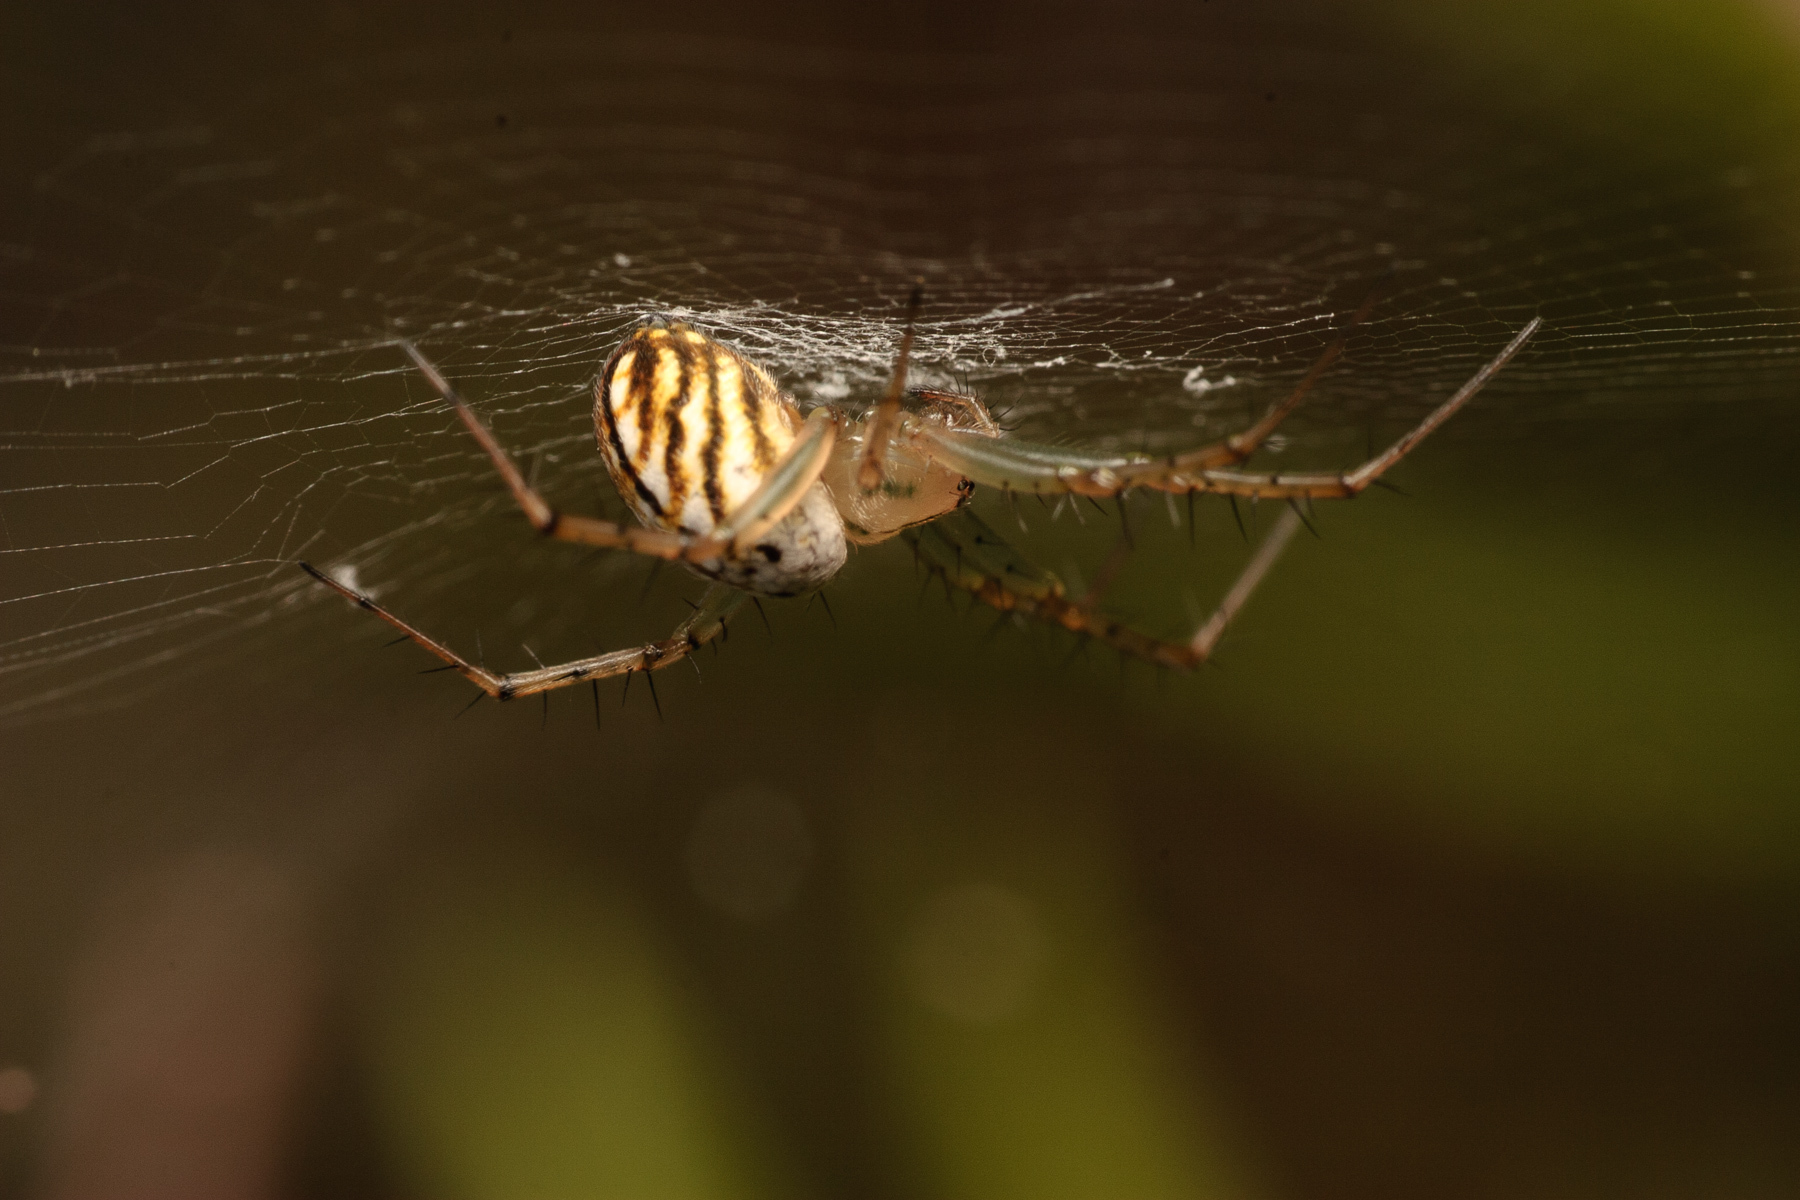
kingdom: Animalia
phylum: Arthropoda
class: Arachnida
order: Araneae
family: Araneidae
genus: Mangora
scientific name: Mangora gibberosa
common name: Lined orbweaver
